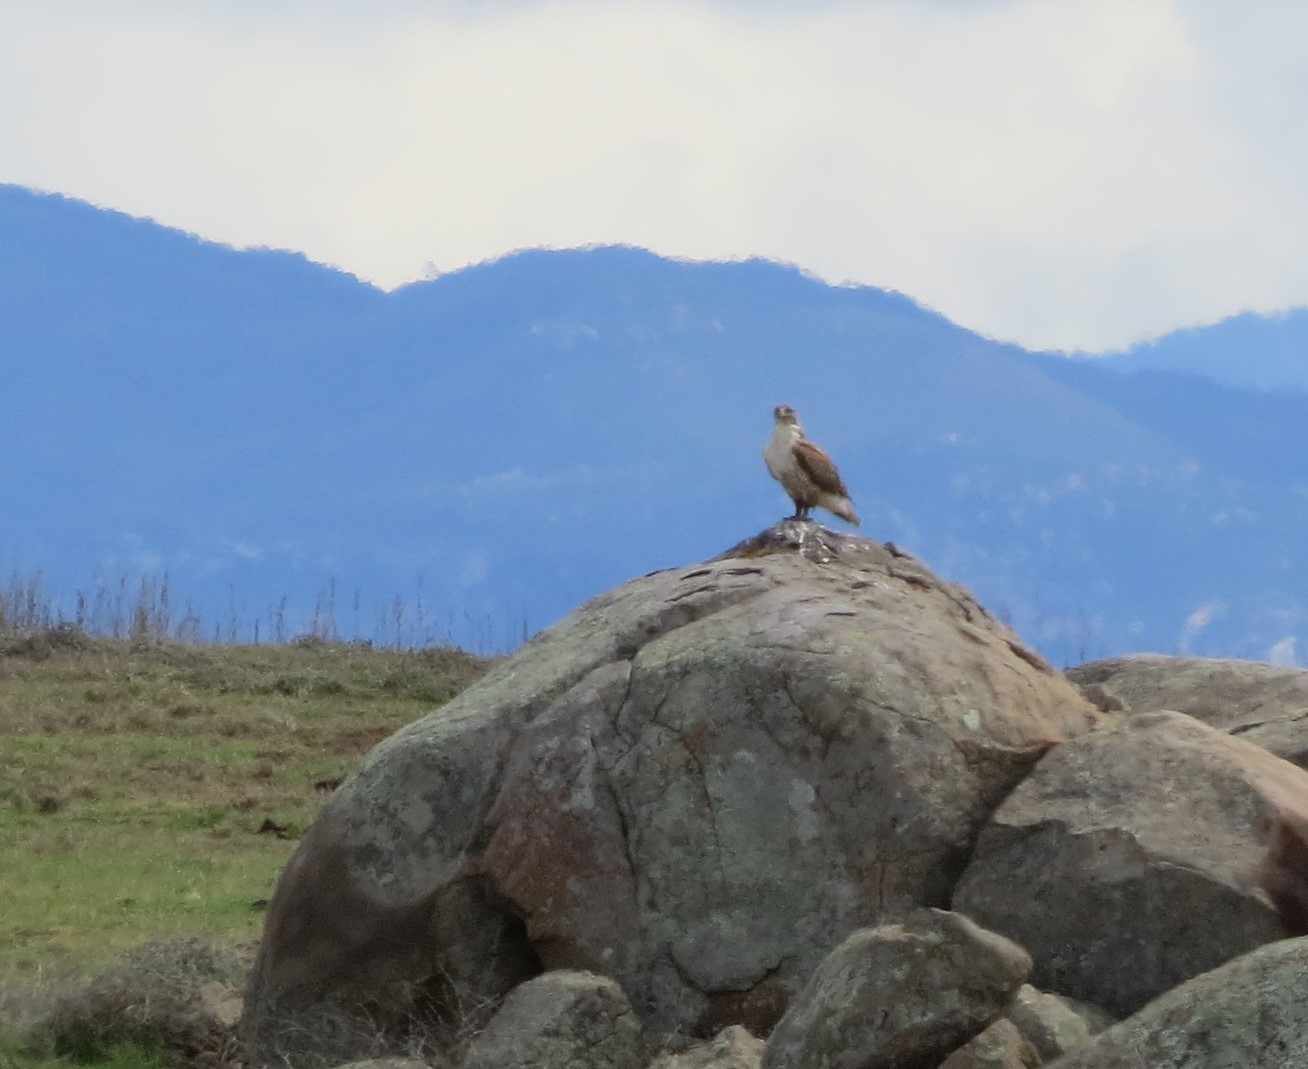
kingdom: Animalia
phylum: Chordata
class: Aves
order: Accipitriformes
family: Accipitridae
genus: Buteo
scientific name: Buteo regalis
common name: Ferruginous hawk
